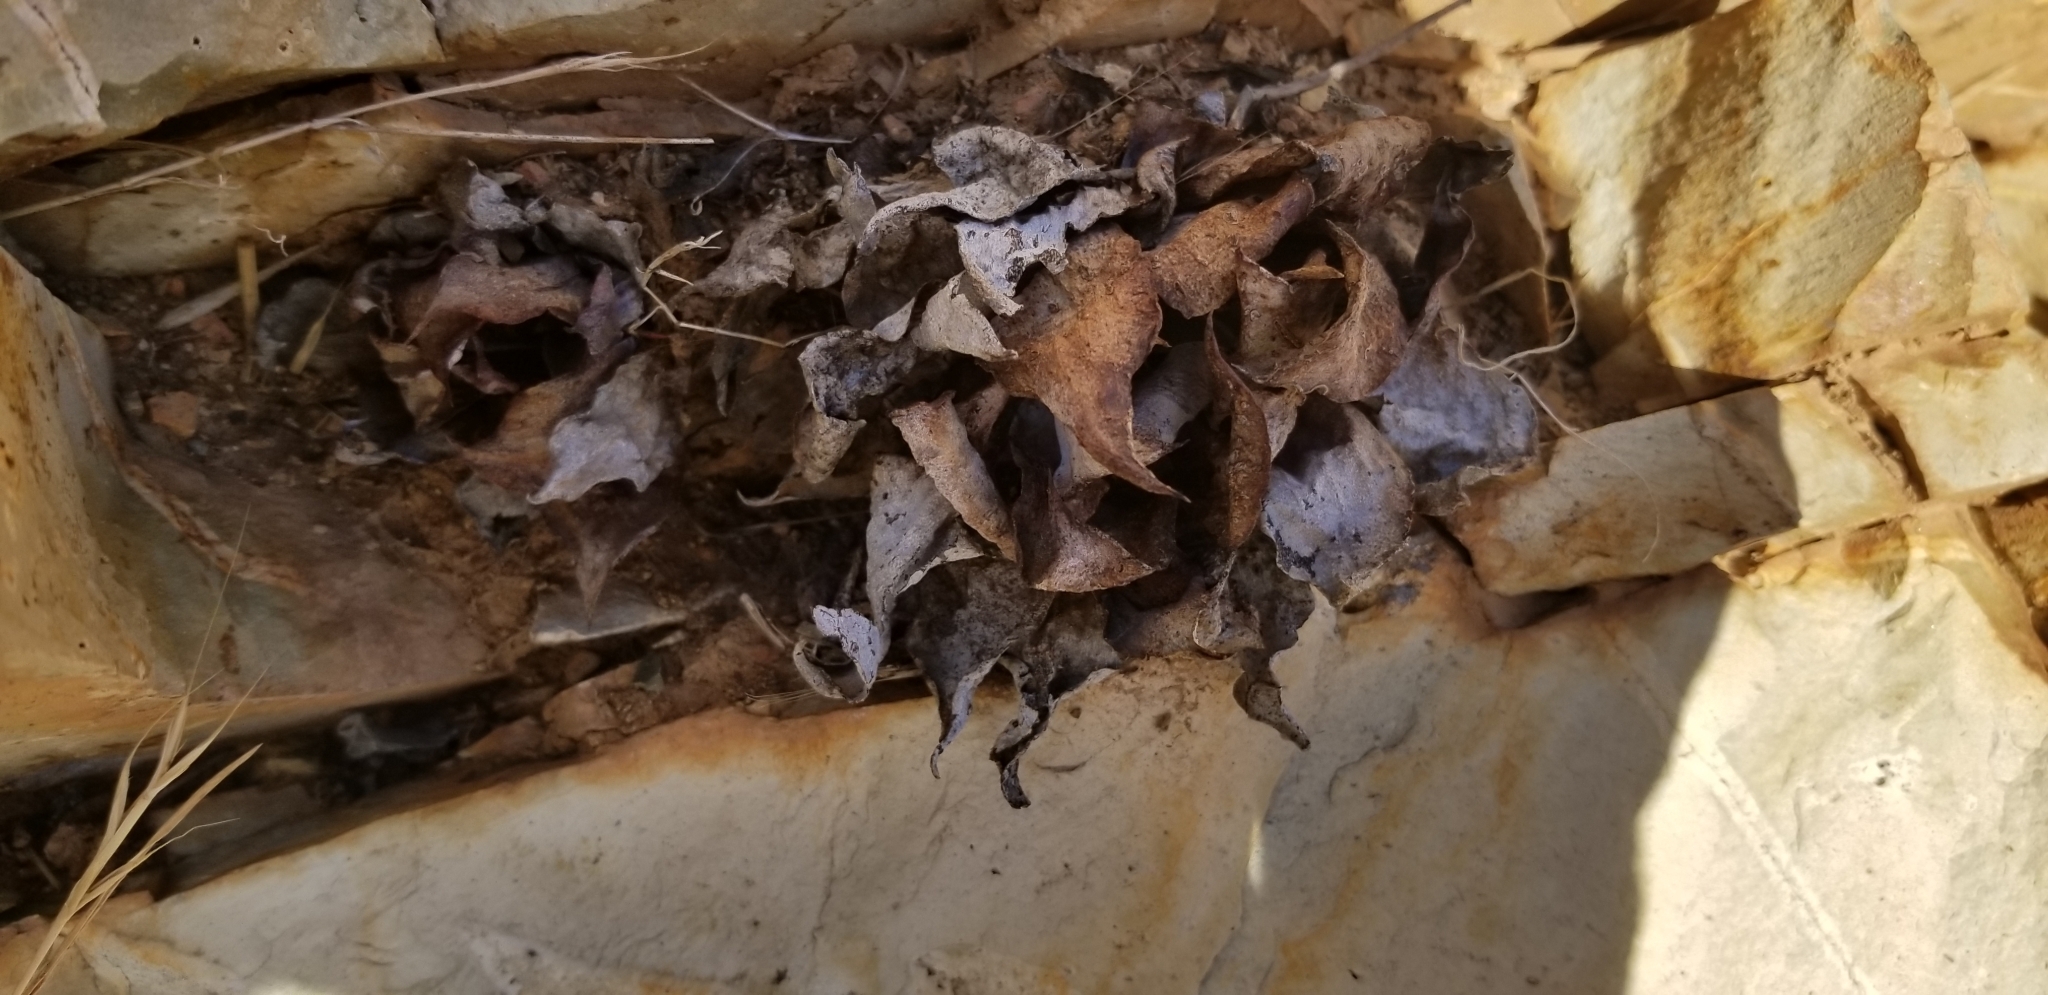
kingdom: Plantae
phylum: Tracheophyta
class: Magnoliopsida
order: Saxifragales
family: Crassulaceae
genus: Dudleya
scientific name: Dudleya pulverulenta
